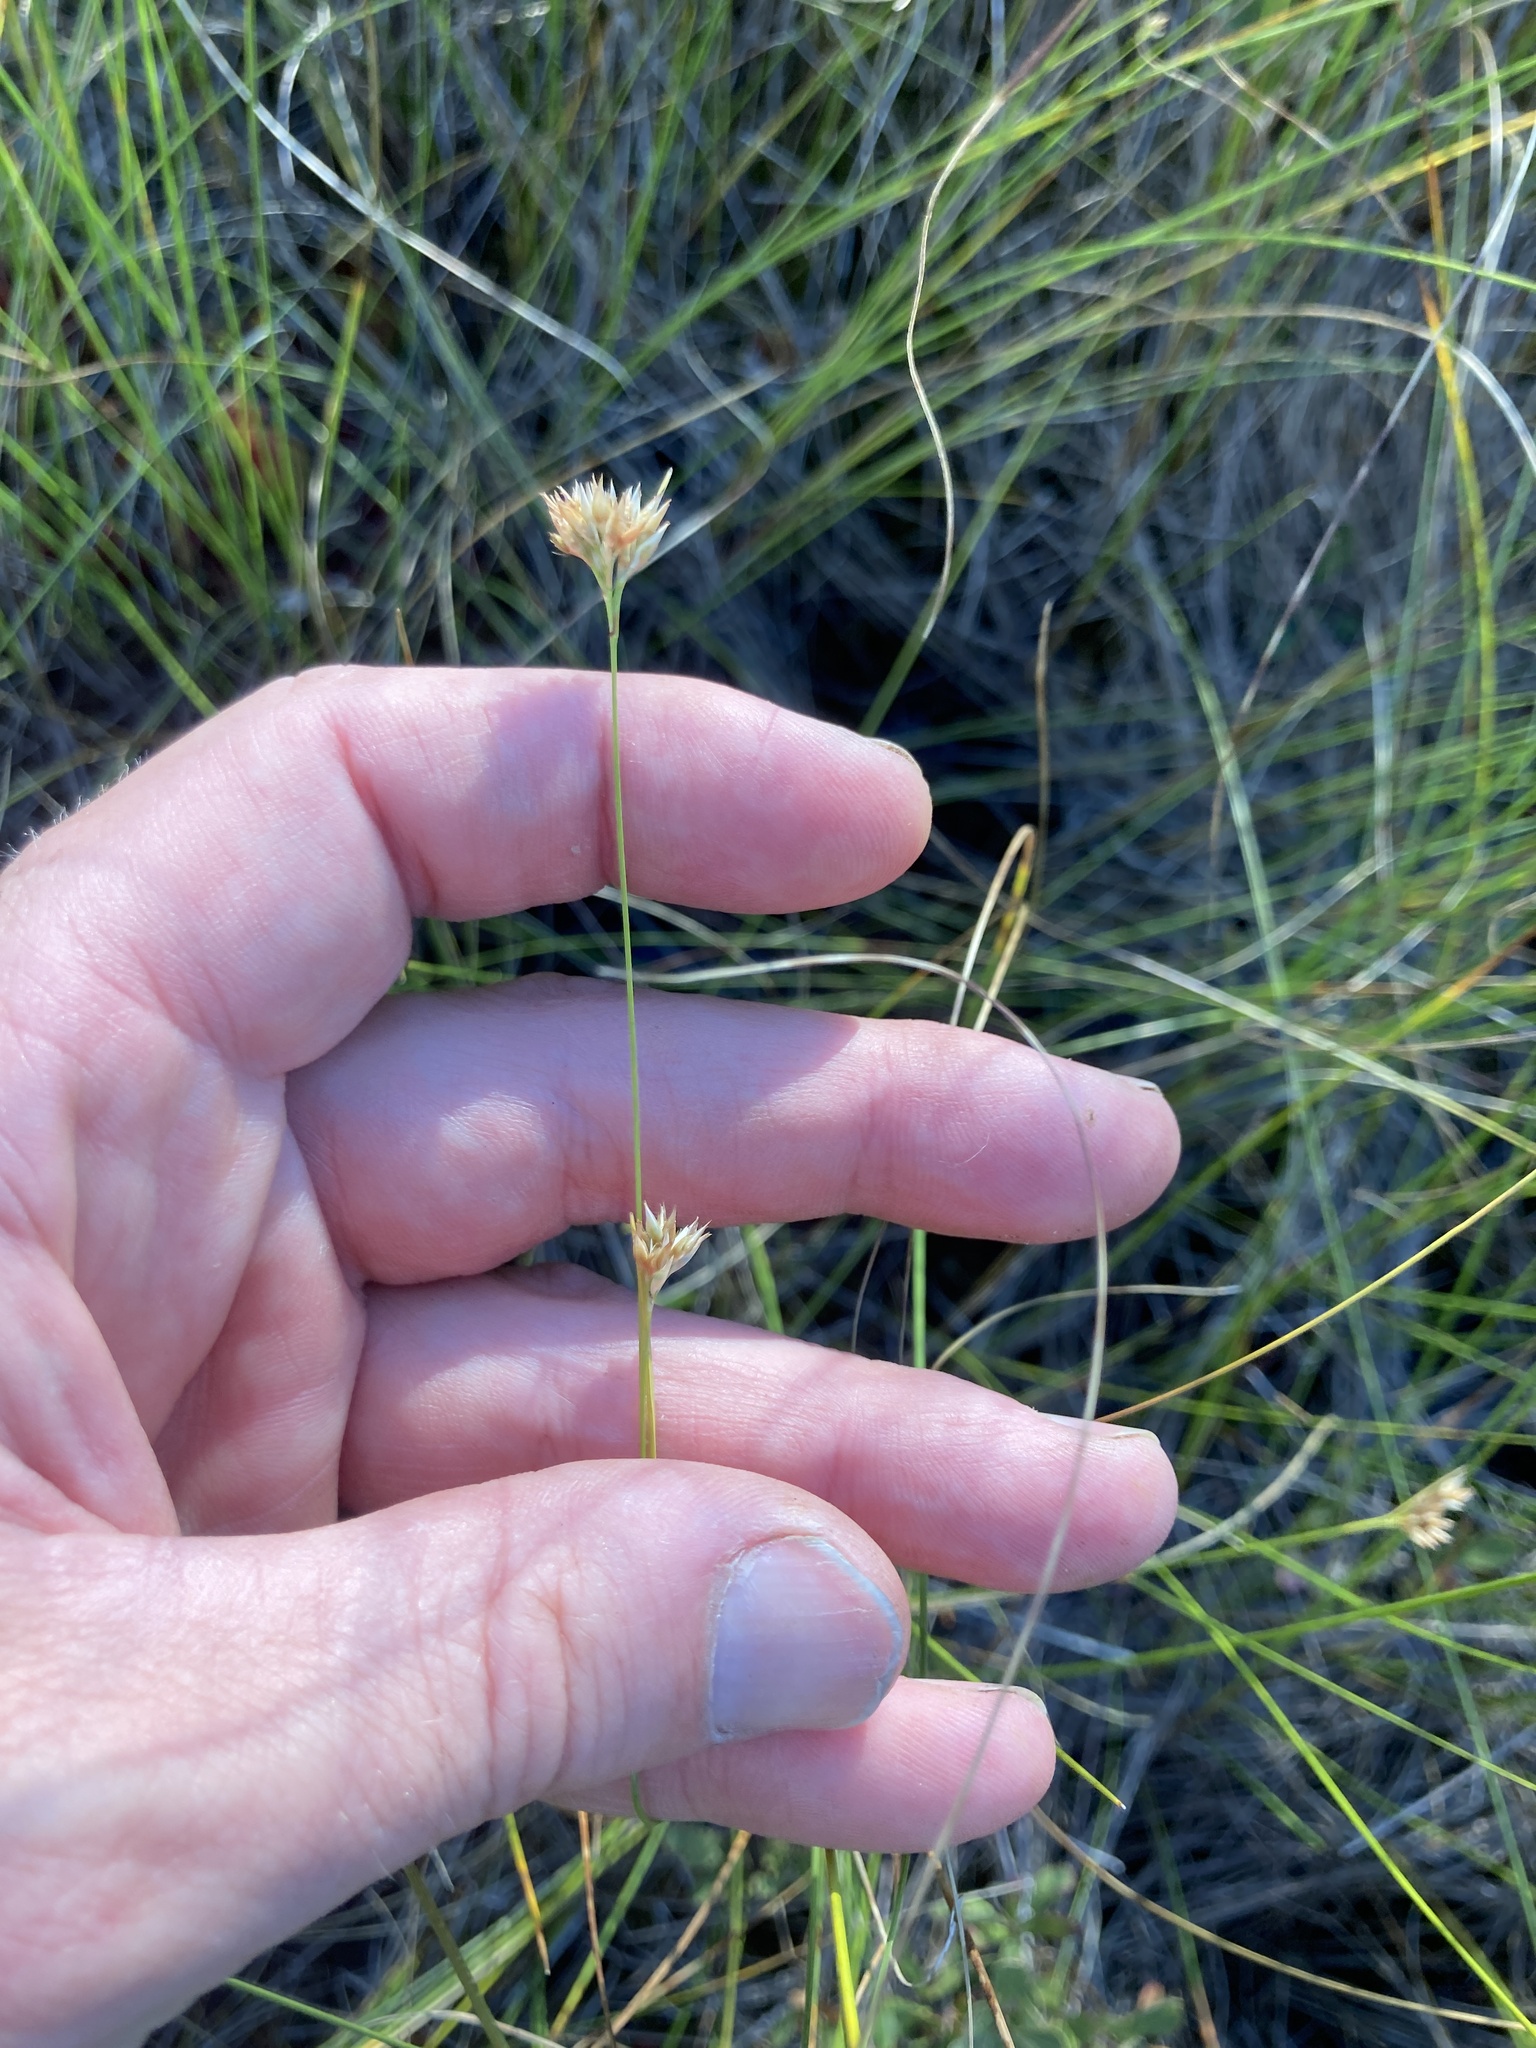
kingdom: Plantae
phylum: Tracheophyta
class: Liliopsida
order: Poales
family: Cyperaceae
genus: Rhynchospora
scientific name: Rhynchospora alba
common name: White beak-sedge
